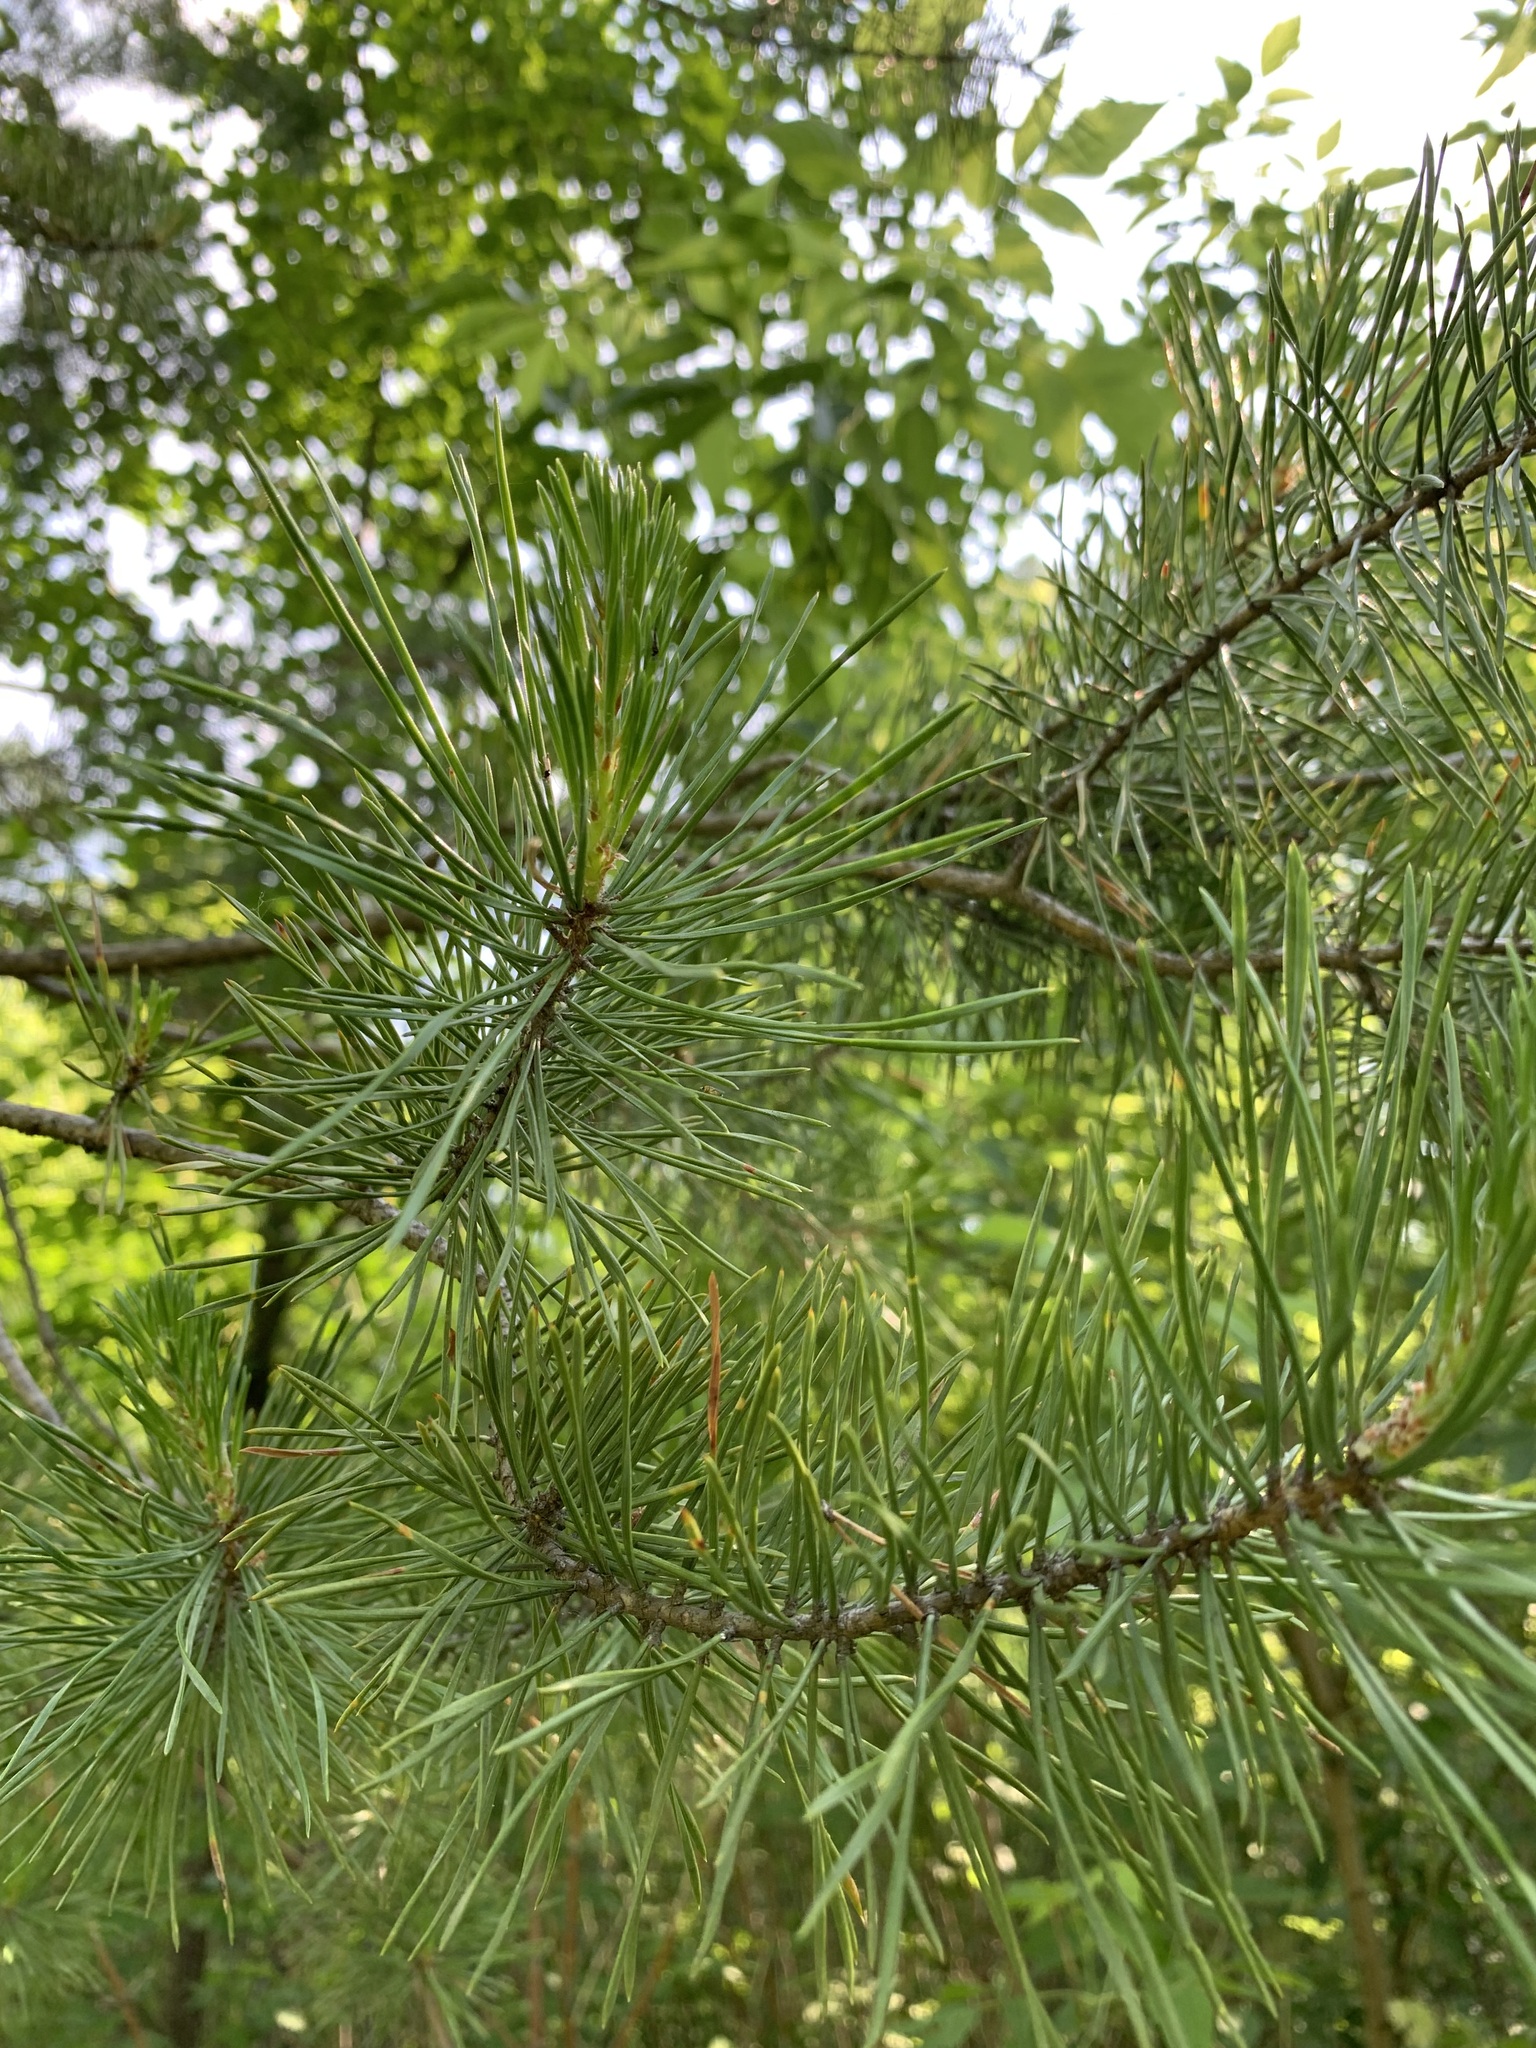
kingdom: Plantae
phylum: Tracheophyta
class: Pinopsida
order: Pinales
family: Pinaceae
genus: Pinus
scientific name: Pinus sylvestris
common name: Scots pine
